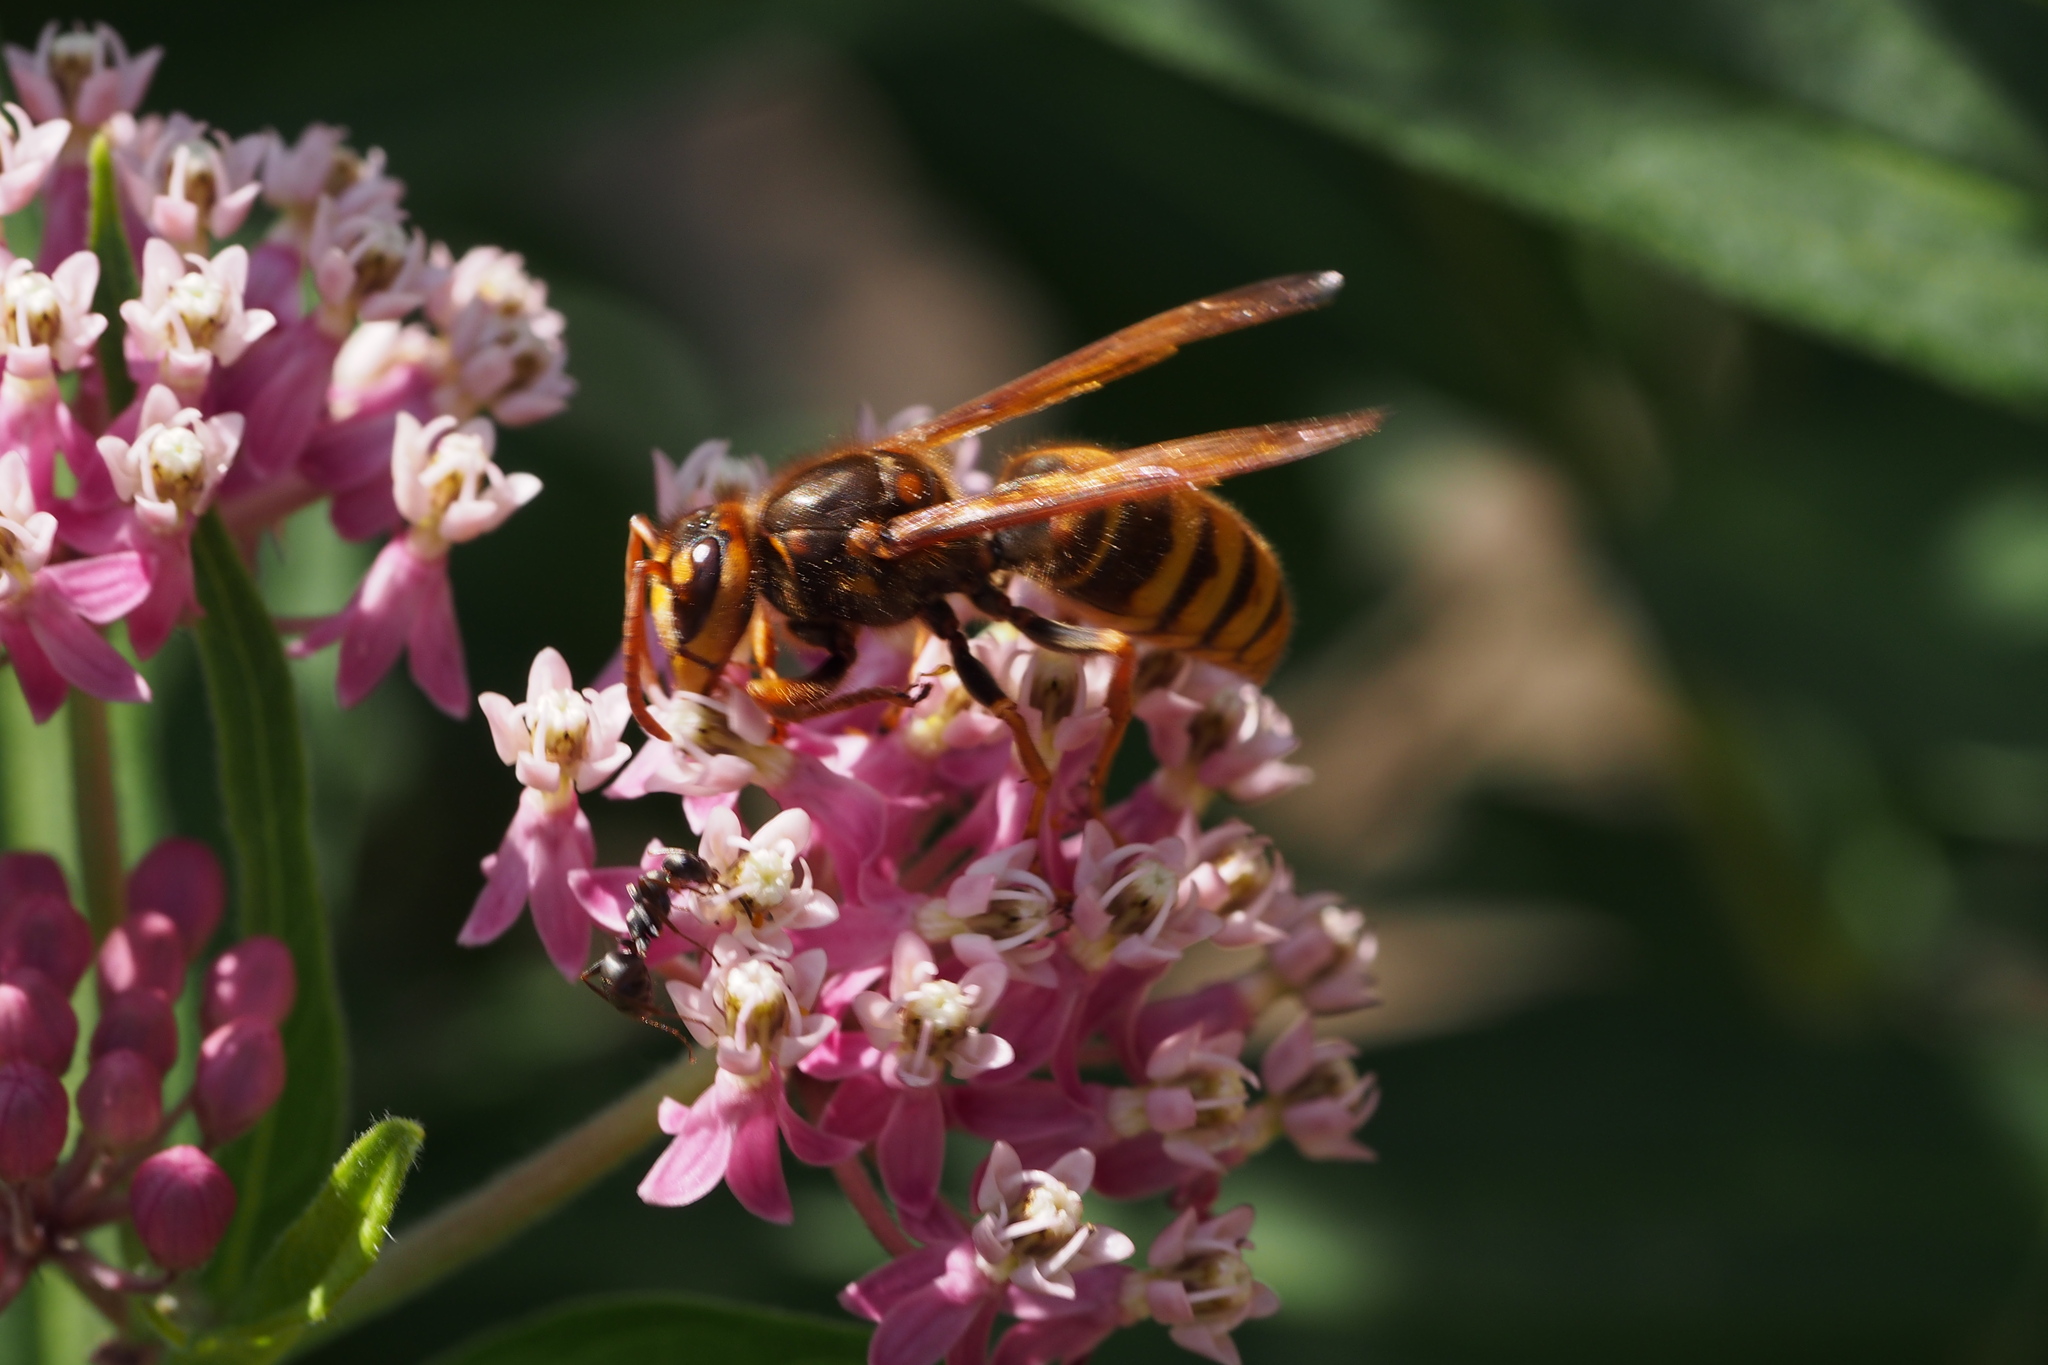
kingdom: Animalia
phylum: Arthropoda
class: Insecta
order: Hymenoptera
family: Vespidae
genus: Vespa
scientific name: Vespa simillima
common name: Vespid wasp
